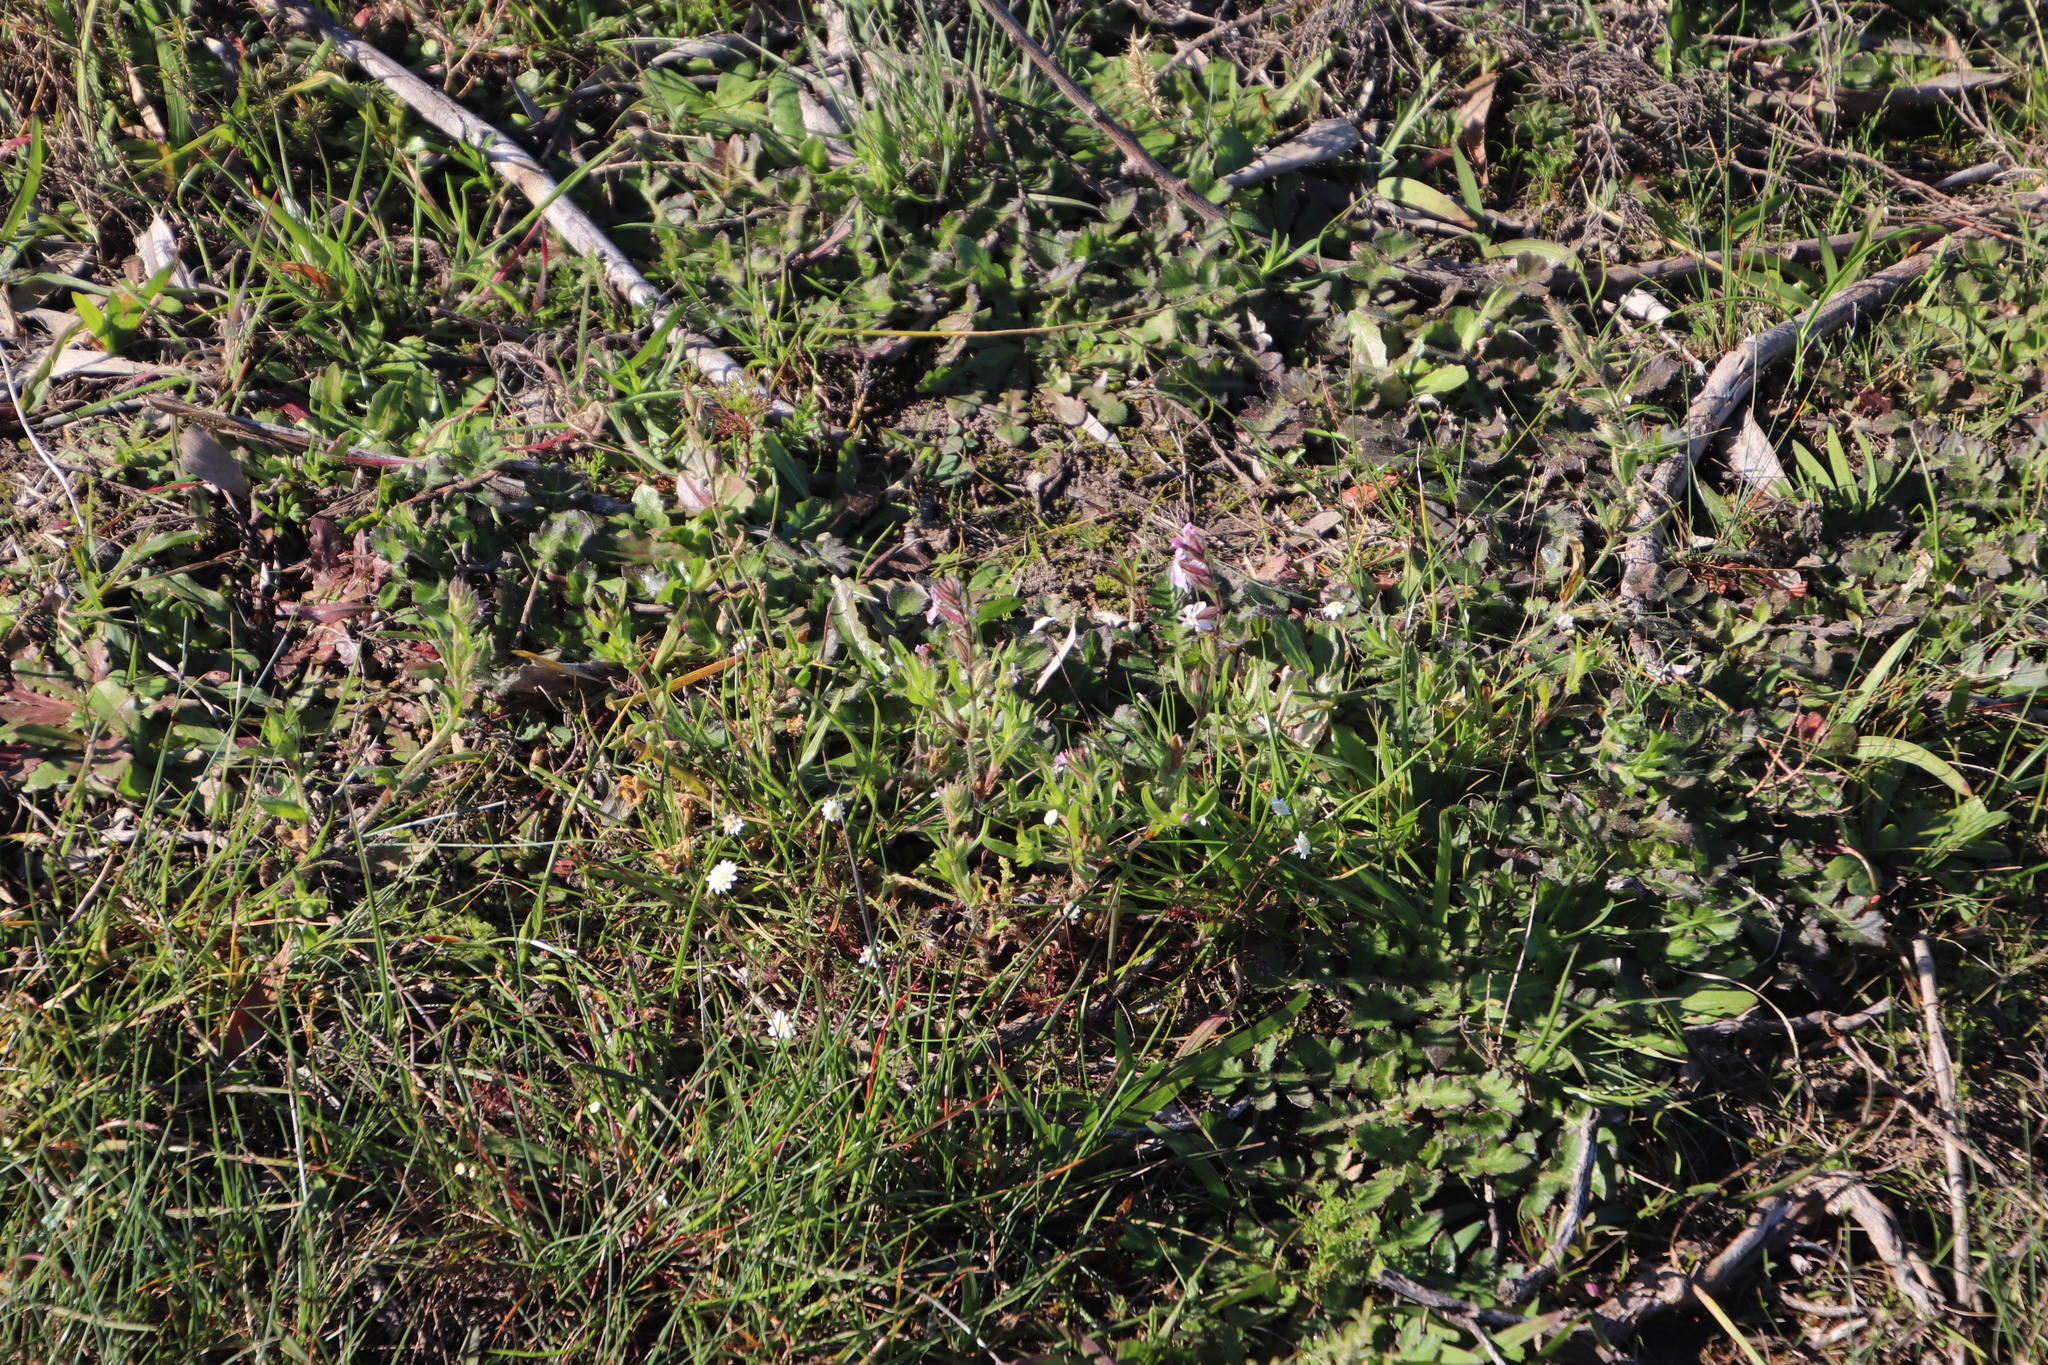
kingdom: Plantae
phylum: Tracheophyta
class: Magnoliopsida
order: Caryophyllales
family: Caryophyllaceae
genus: Silene
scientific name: Silene gallica
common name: Small-flowered catchfly
